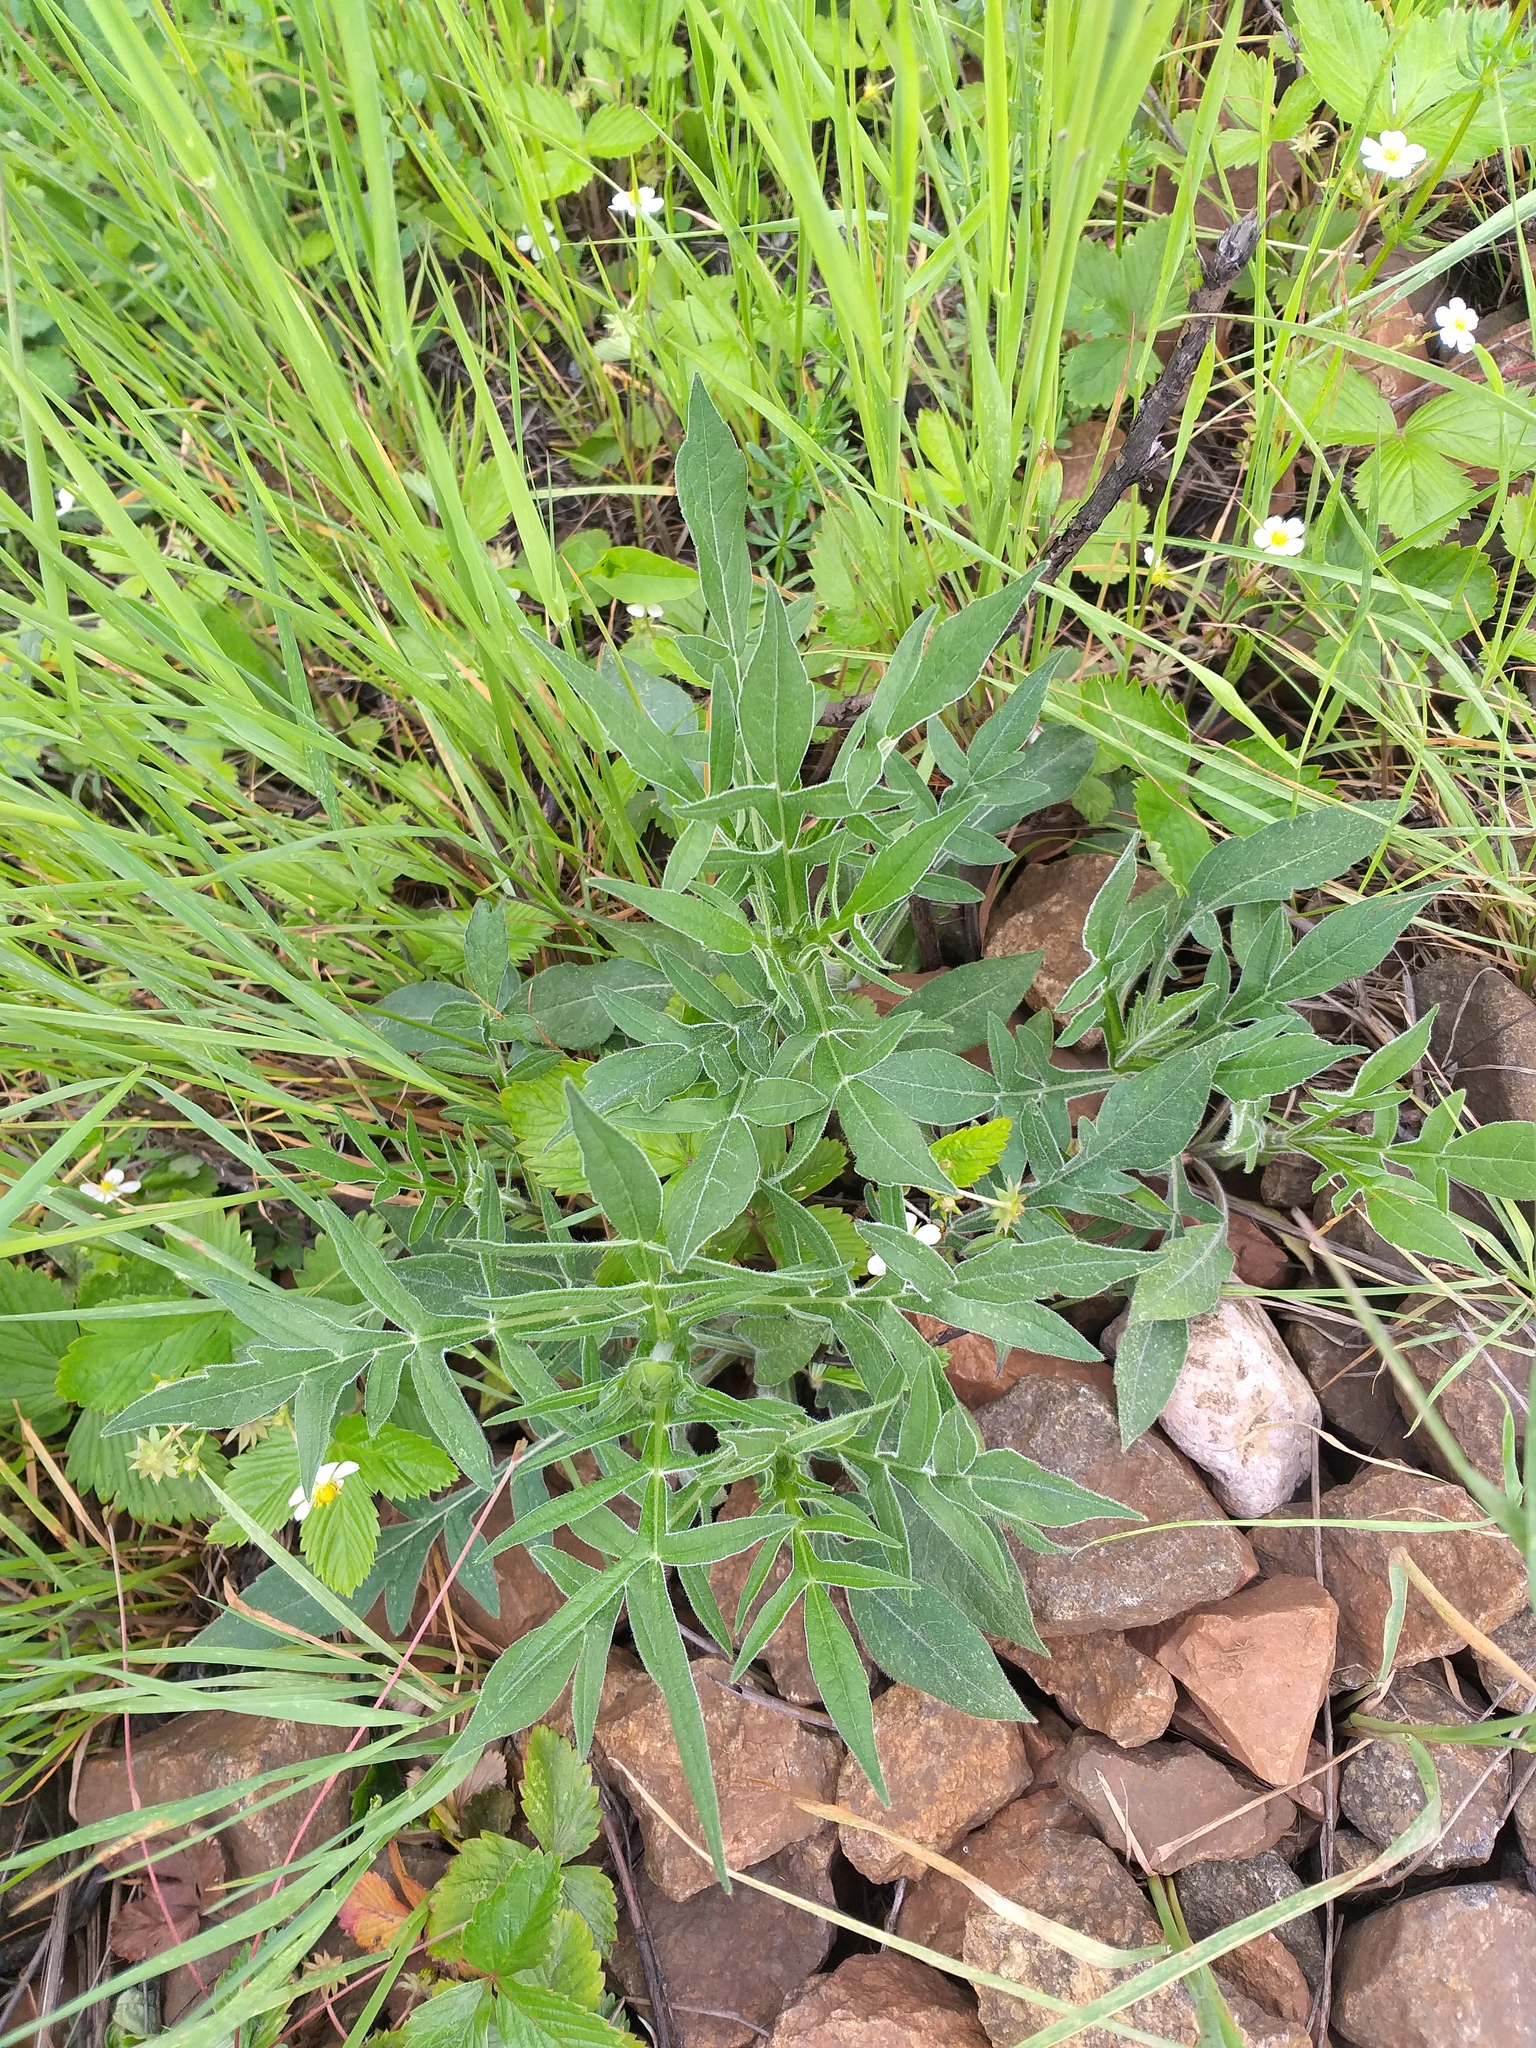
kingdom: Plantae
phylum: Tracheophyta
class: Magnoliopsida
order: Dipsacales
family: Caprifoliaceae
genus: Knautia
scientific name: Knautia arvensis
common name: Field scabiosa
